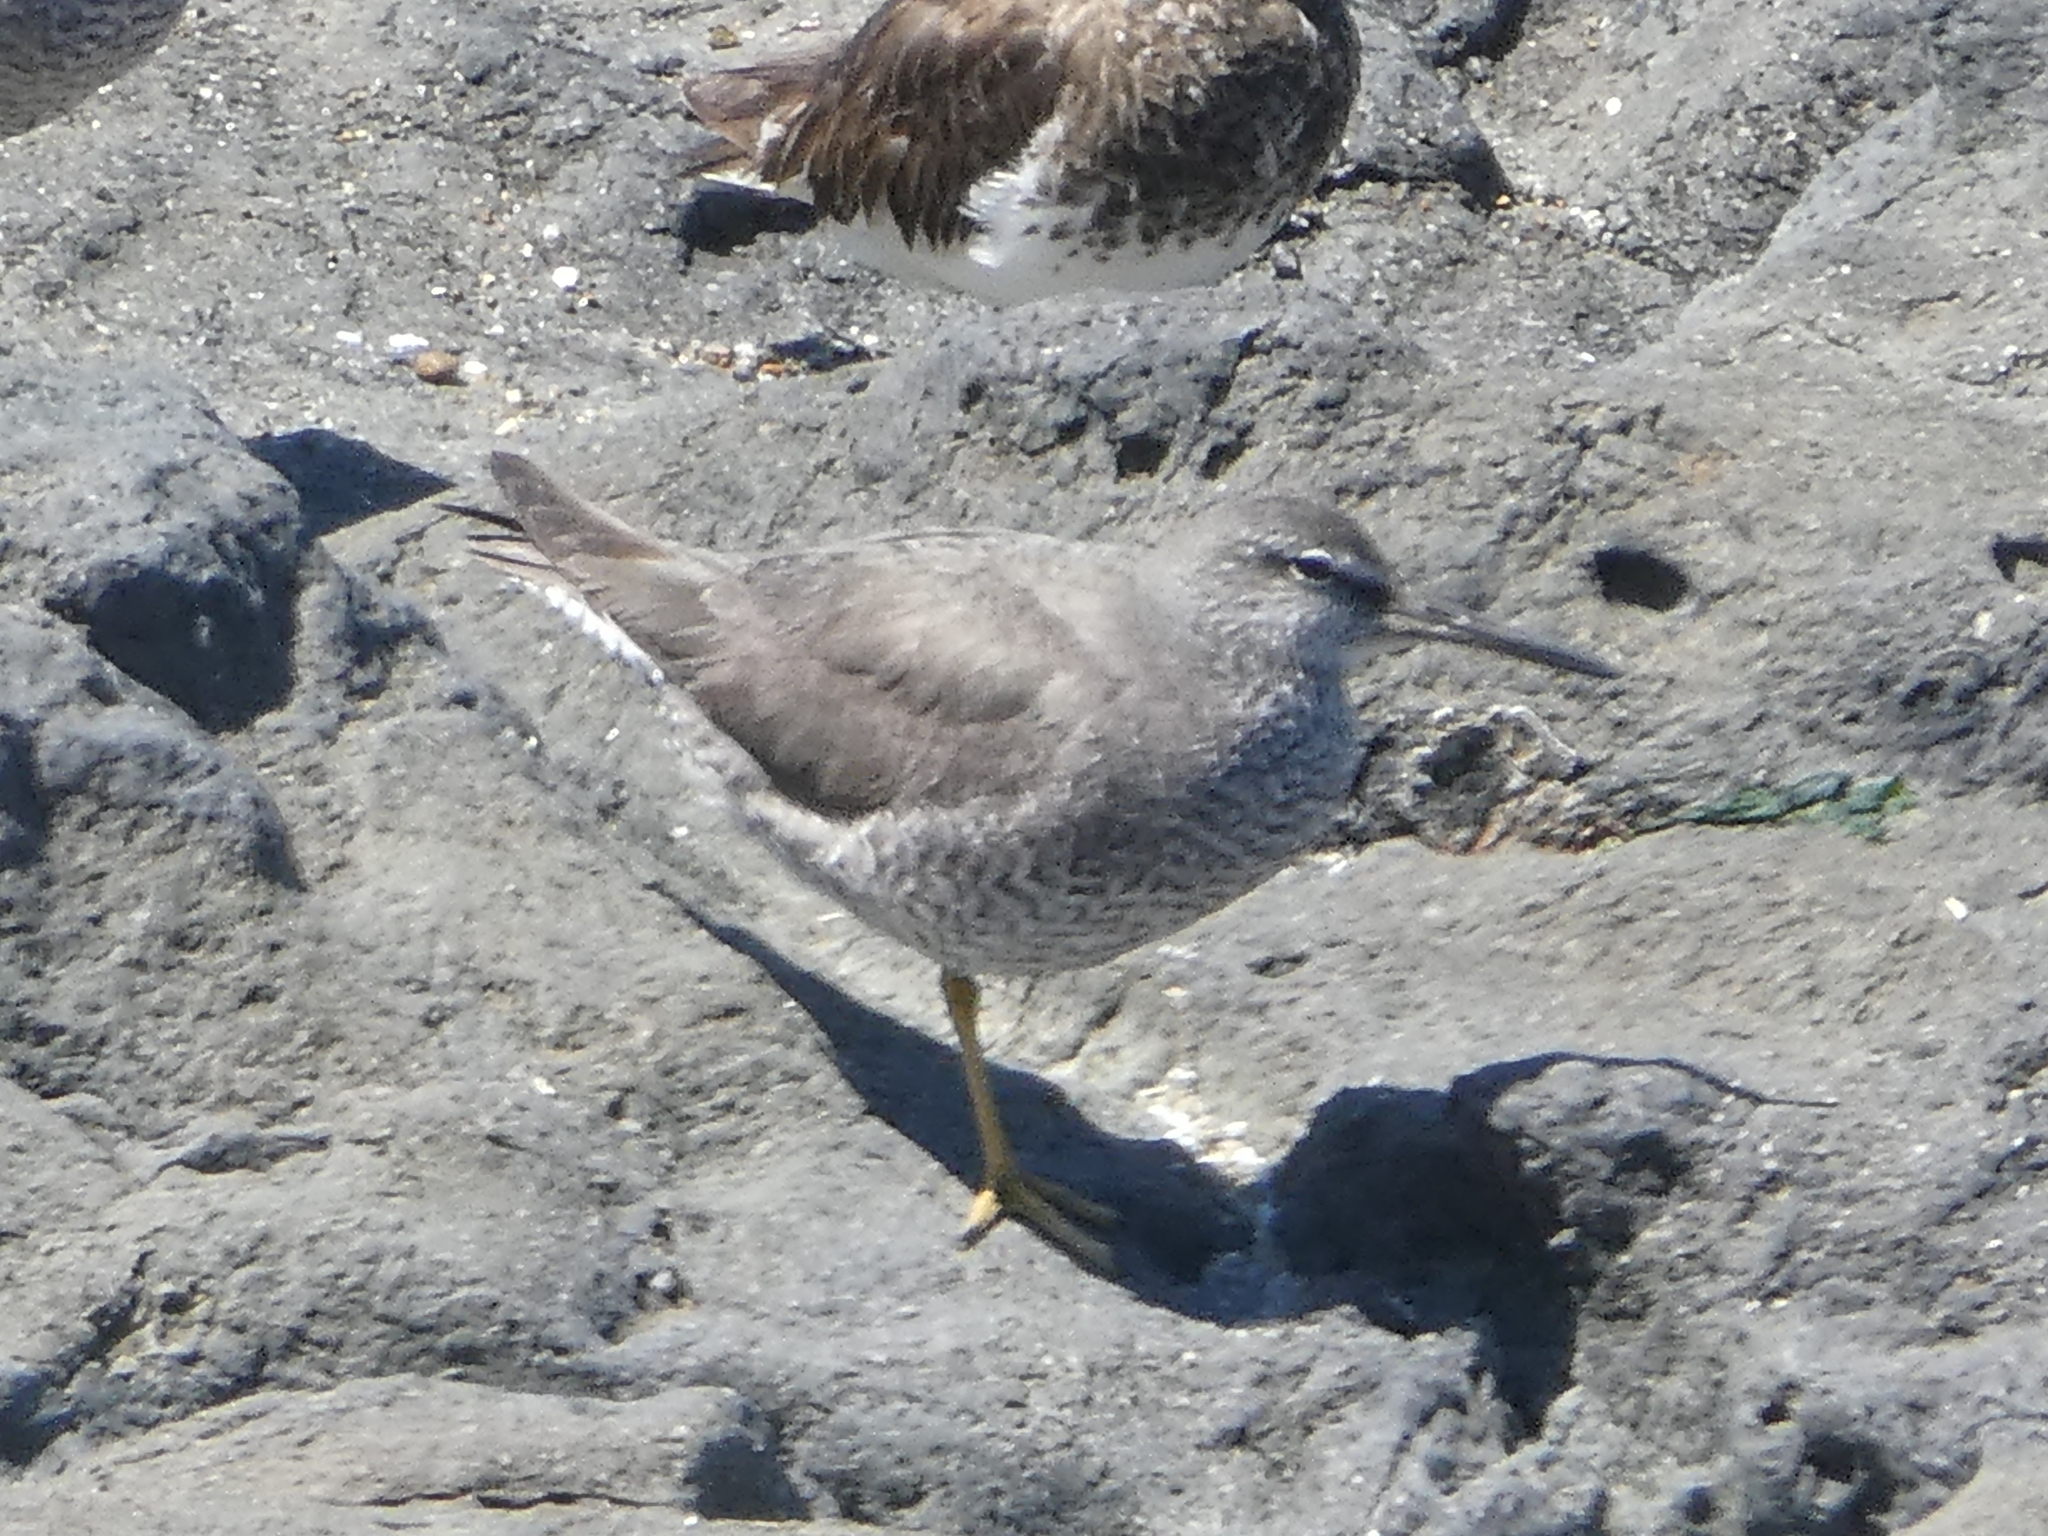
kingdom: Animalia
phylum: Chordata
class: Aves
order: Charadriiformes
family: Laridae
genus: Larus
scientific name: Larus occidentalis
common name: Western gull
